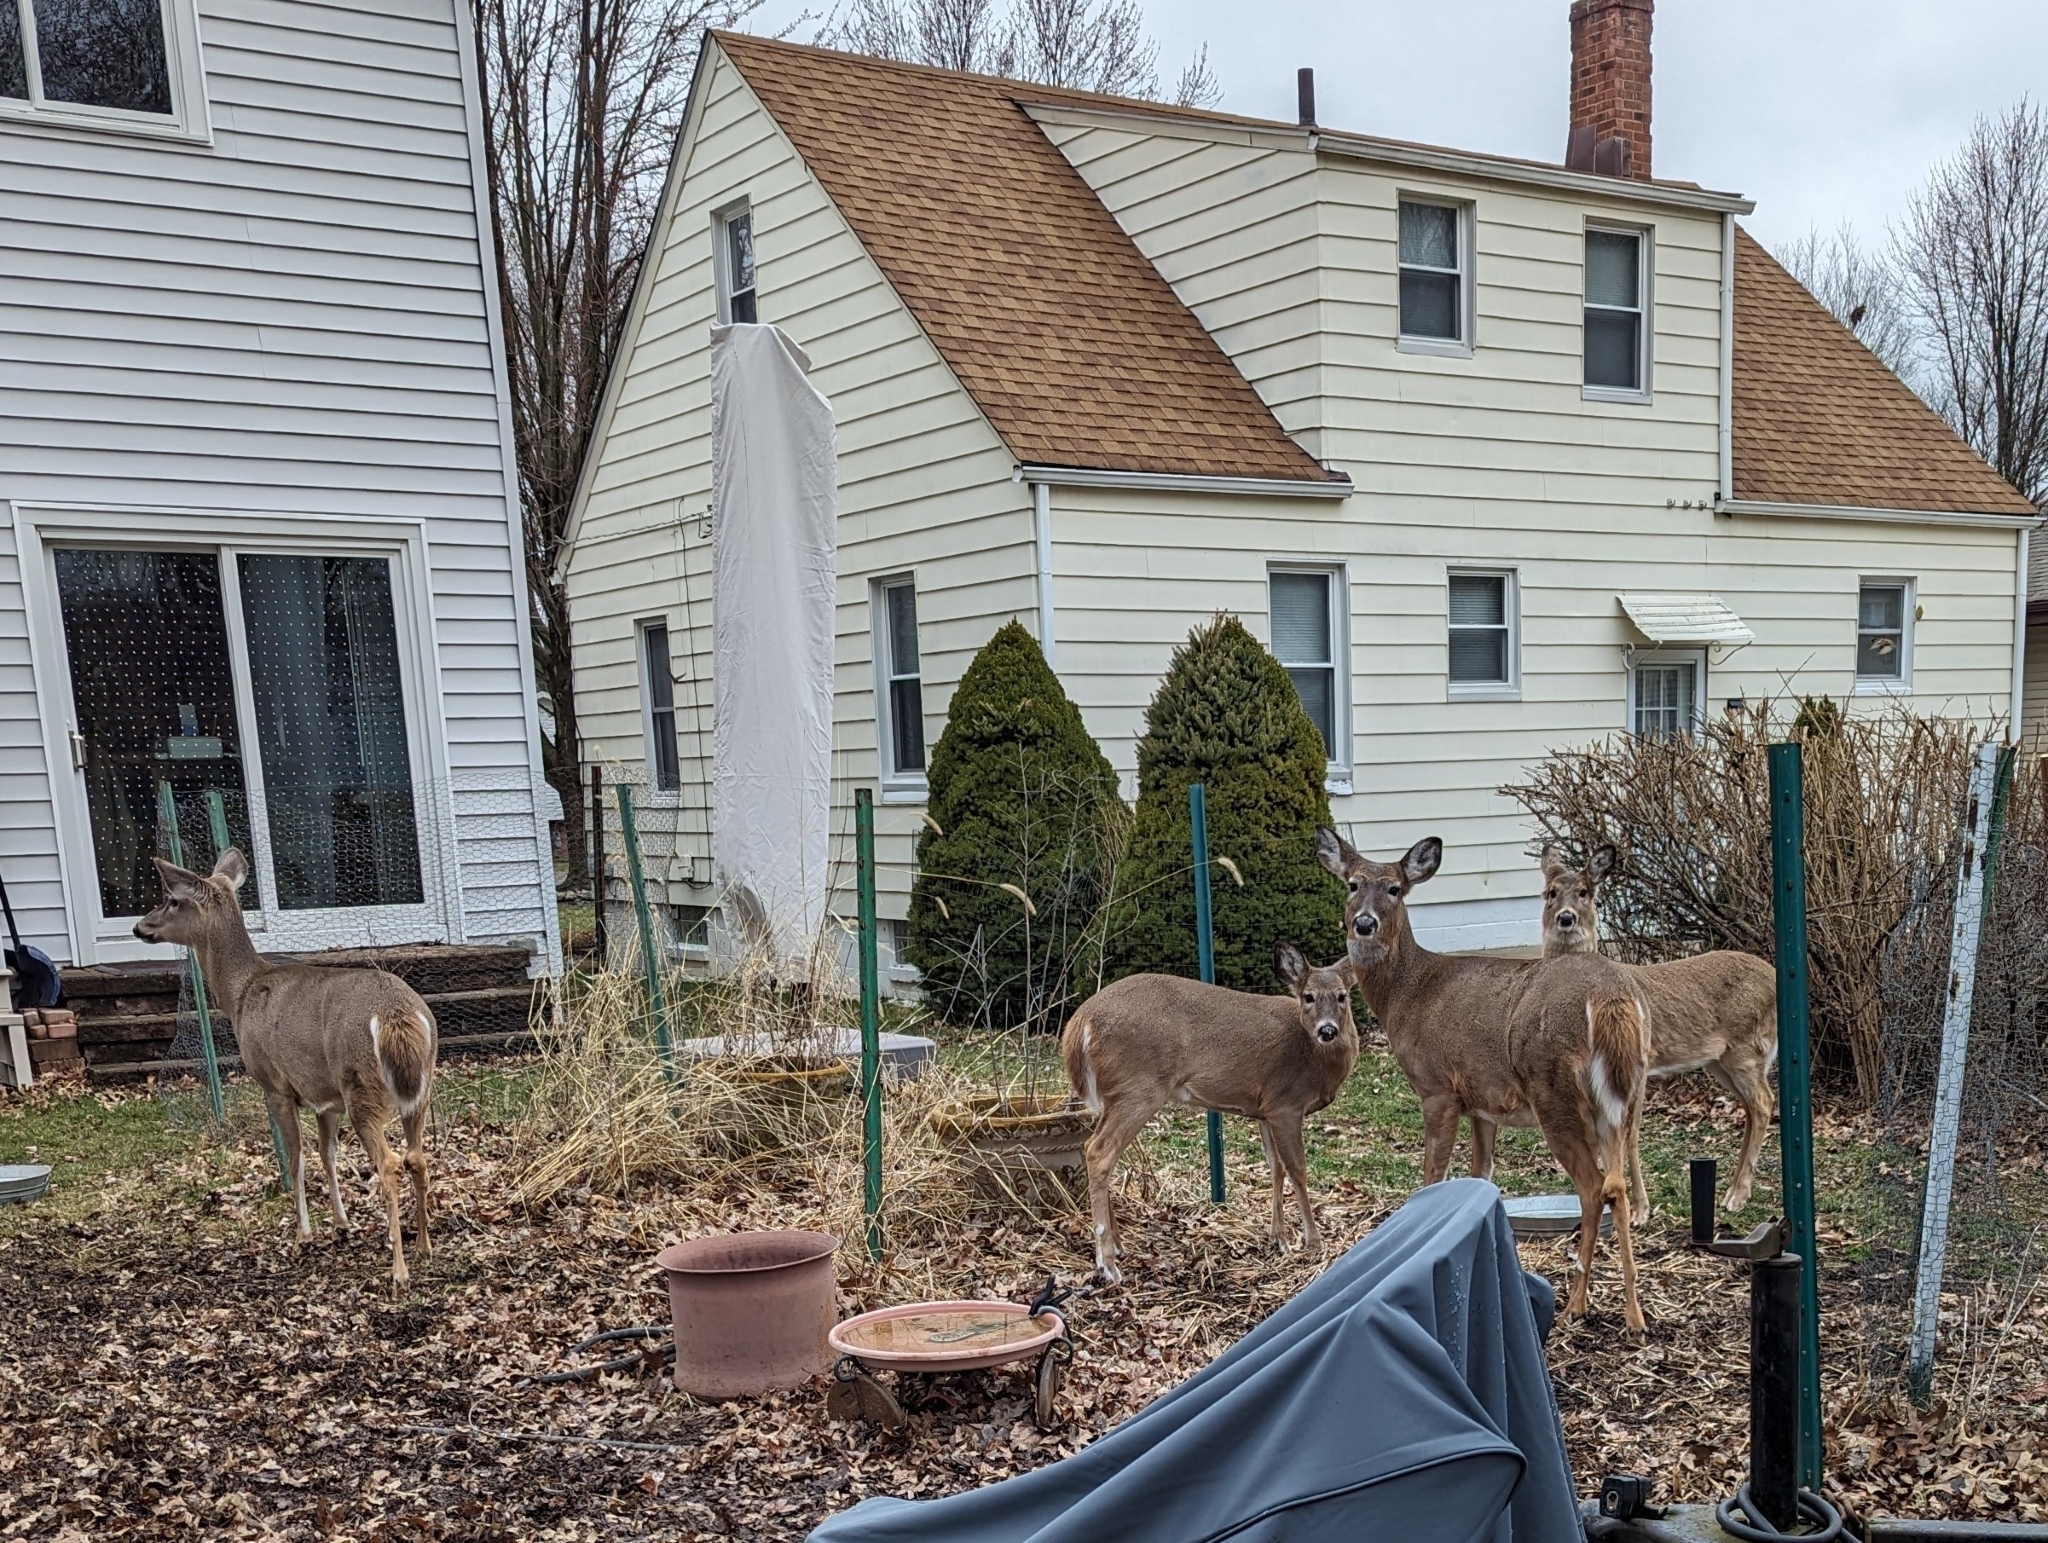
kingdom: Animalia
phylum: Chordata
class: Mammalia
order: Artiodactyla
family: Cervidae
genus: Odocoileus
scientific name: Odocoileus virginianus
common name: White-tailed deer
